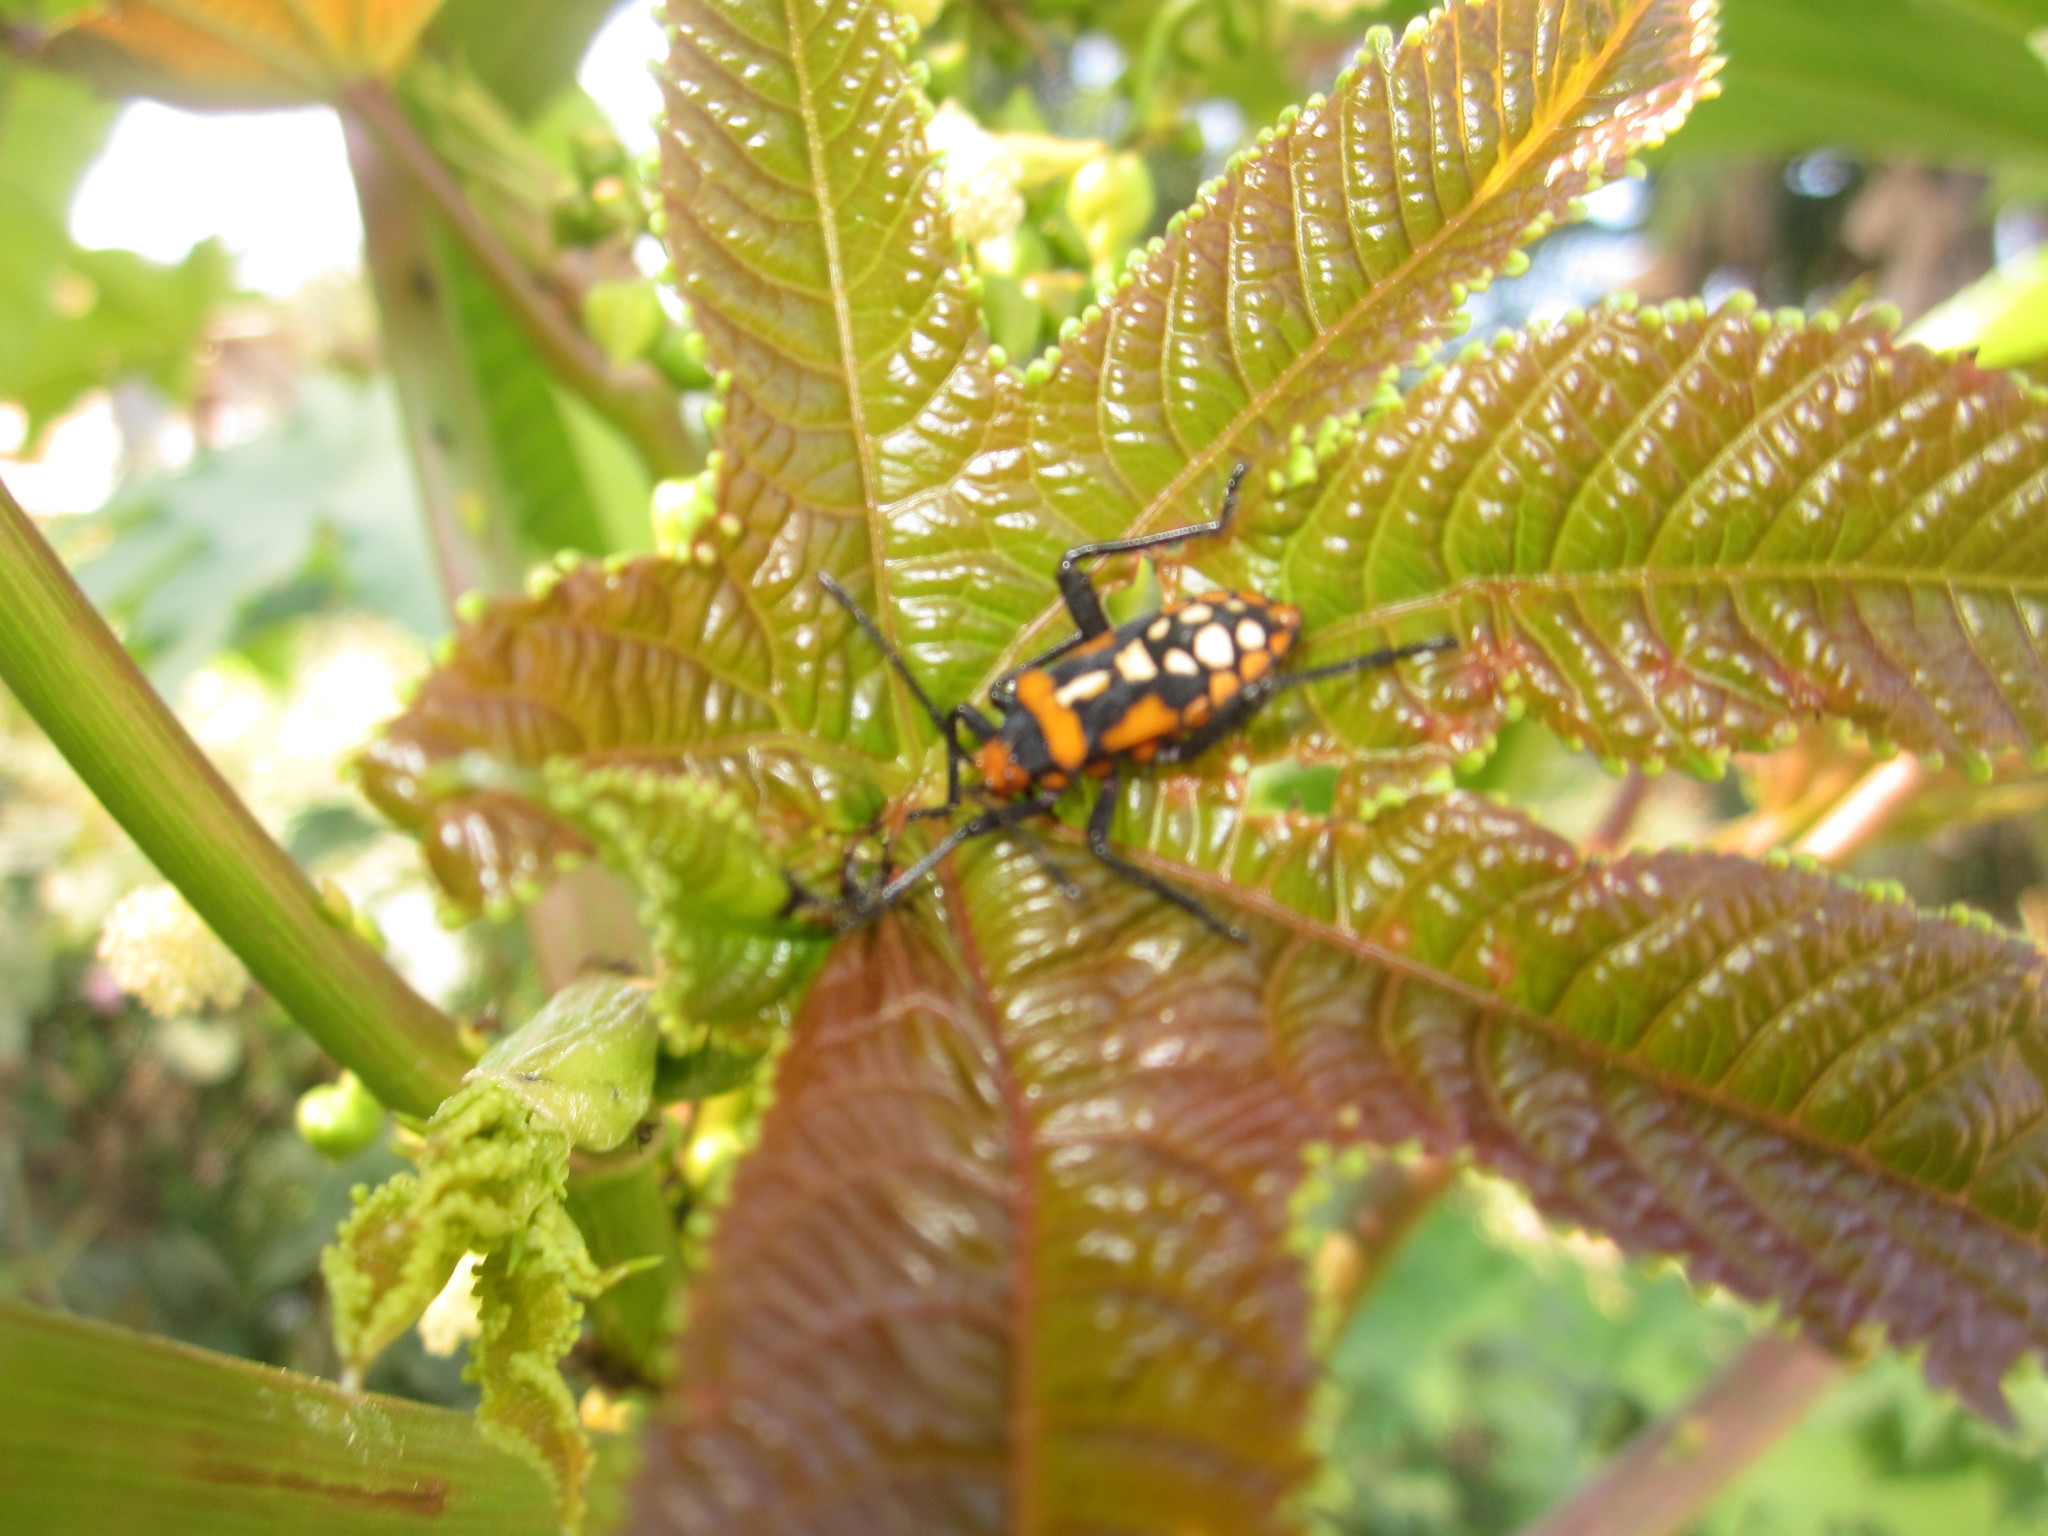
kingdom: Animalia
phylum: Arthropoda
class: Insecta
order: Hemiptera
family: Coreidae
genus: Sagotylus
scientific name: Sagotylus confluens
